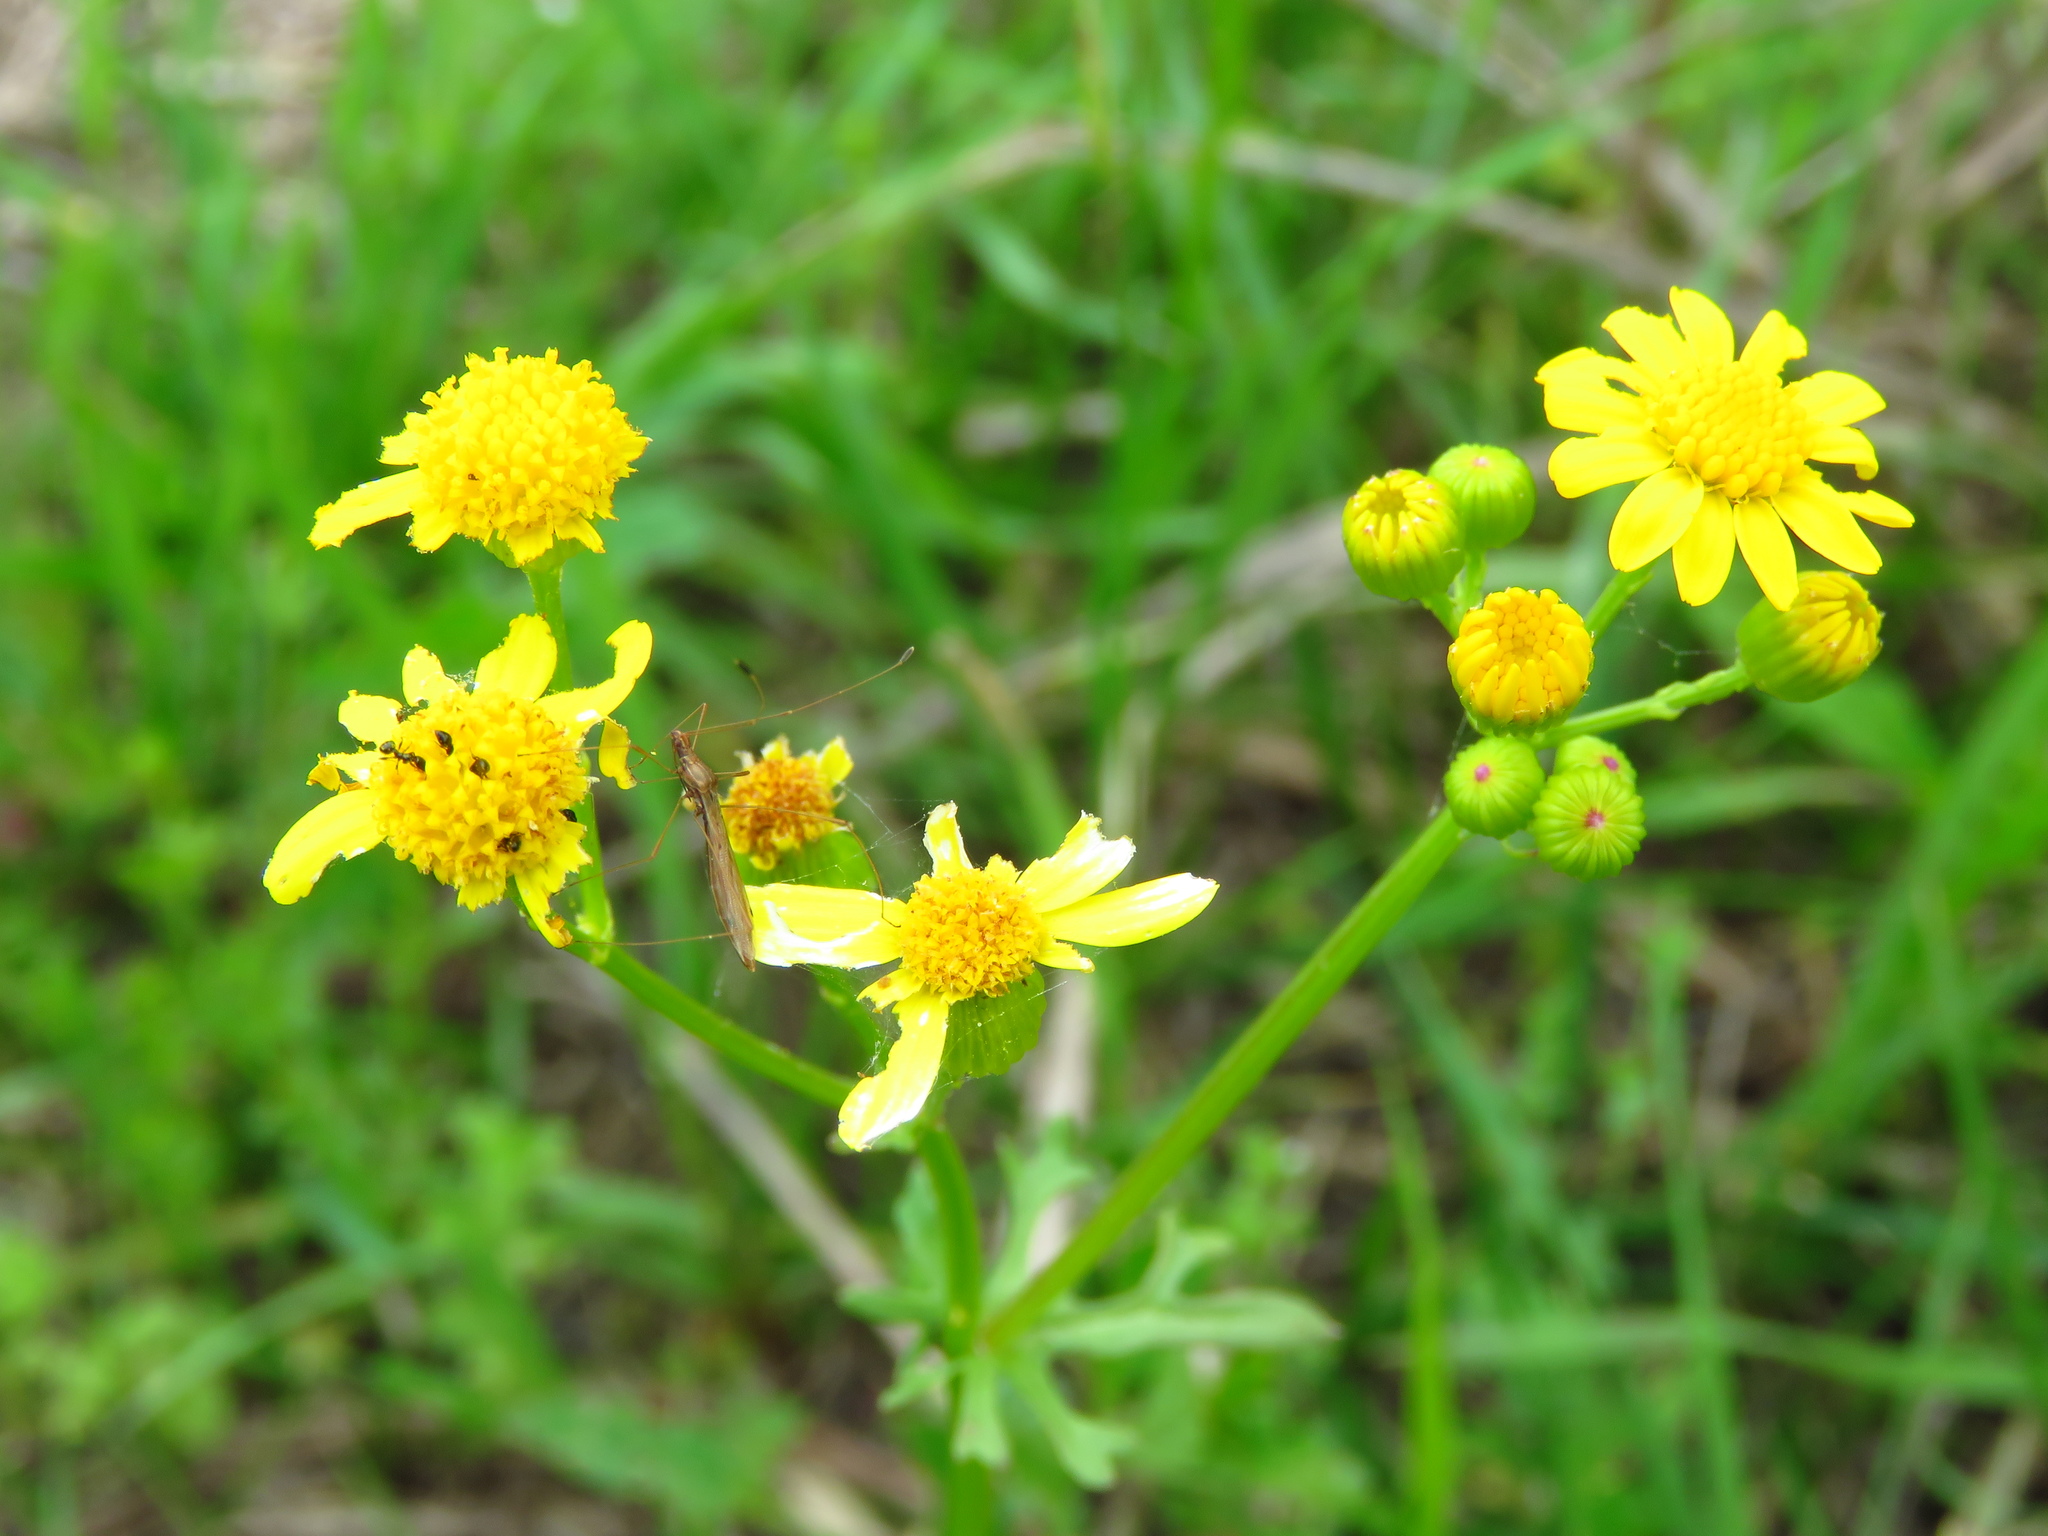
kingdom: Plantae
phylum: Tracheophyta
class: Magnoliopsida
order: Asterales
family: Asteraceae
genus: Packera
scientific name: Packera tampicana
